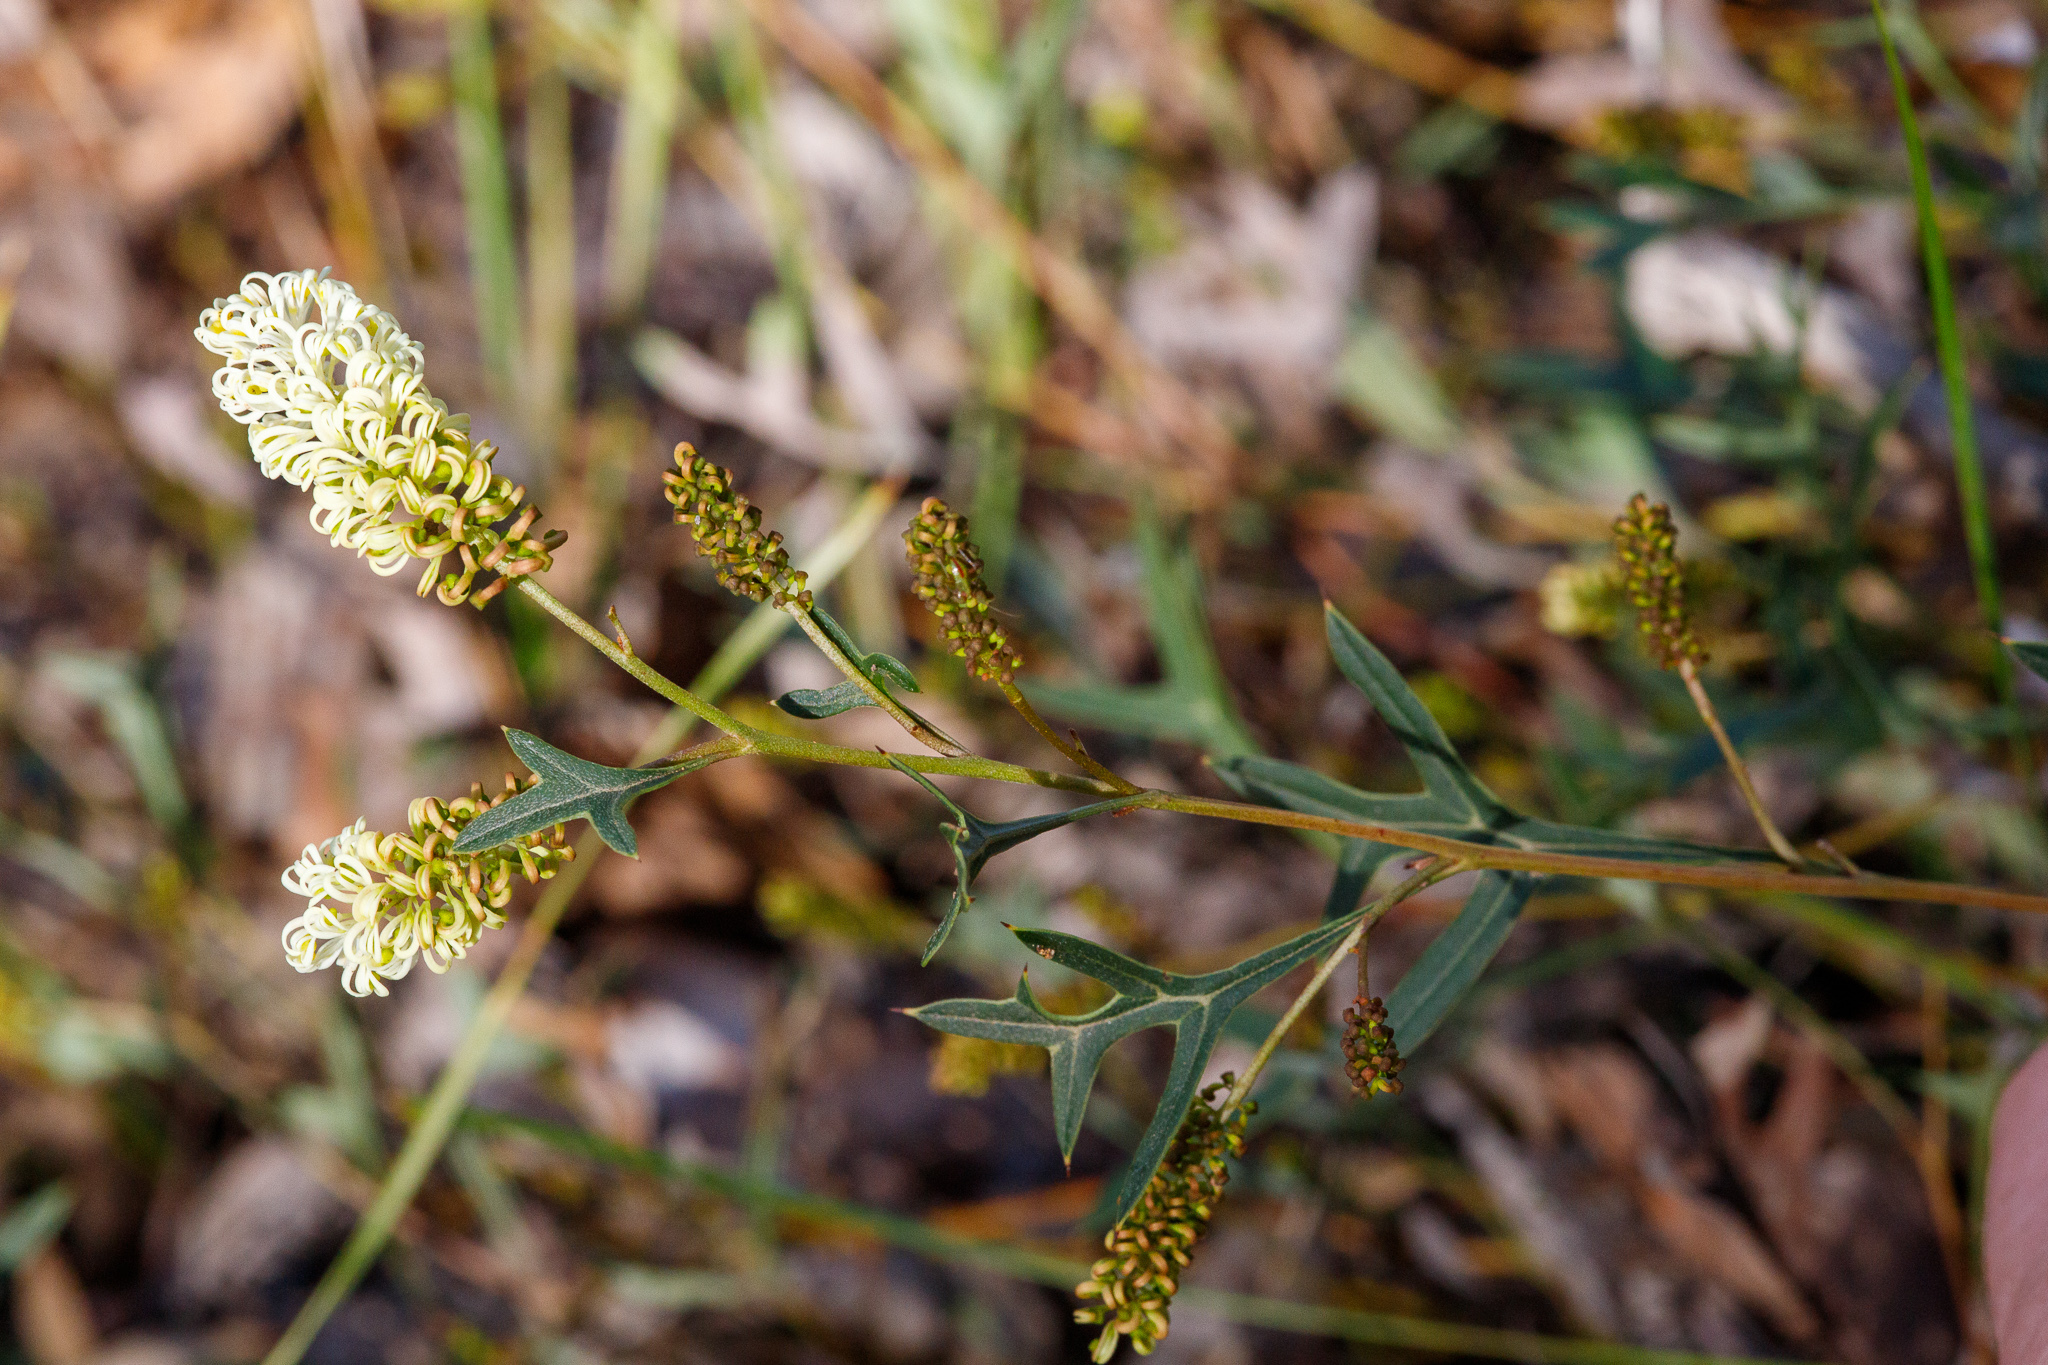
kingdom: Plantae
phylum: Tracheophyta
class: Magnoliopsida
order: Proteales
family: Proteaceae
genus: Grevillea
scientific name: Grevillea synaphea
